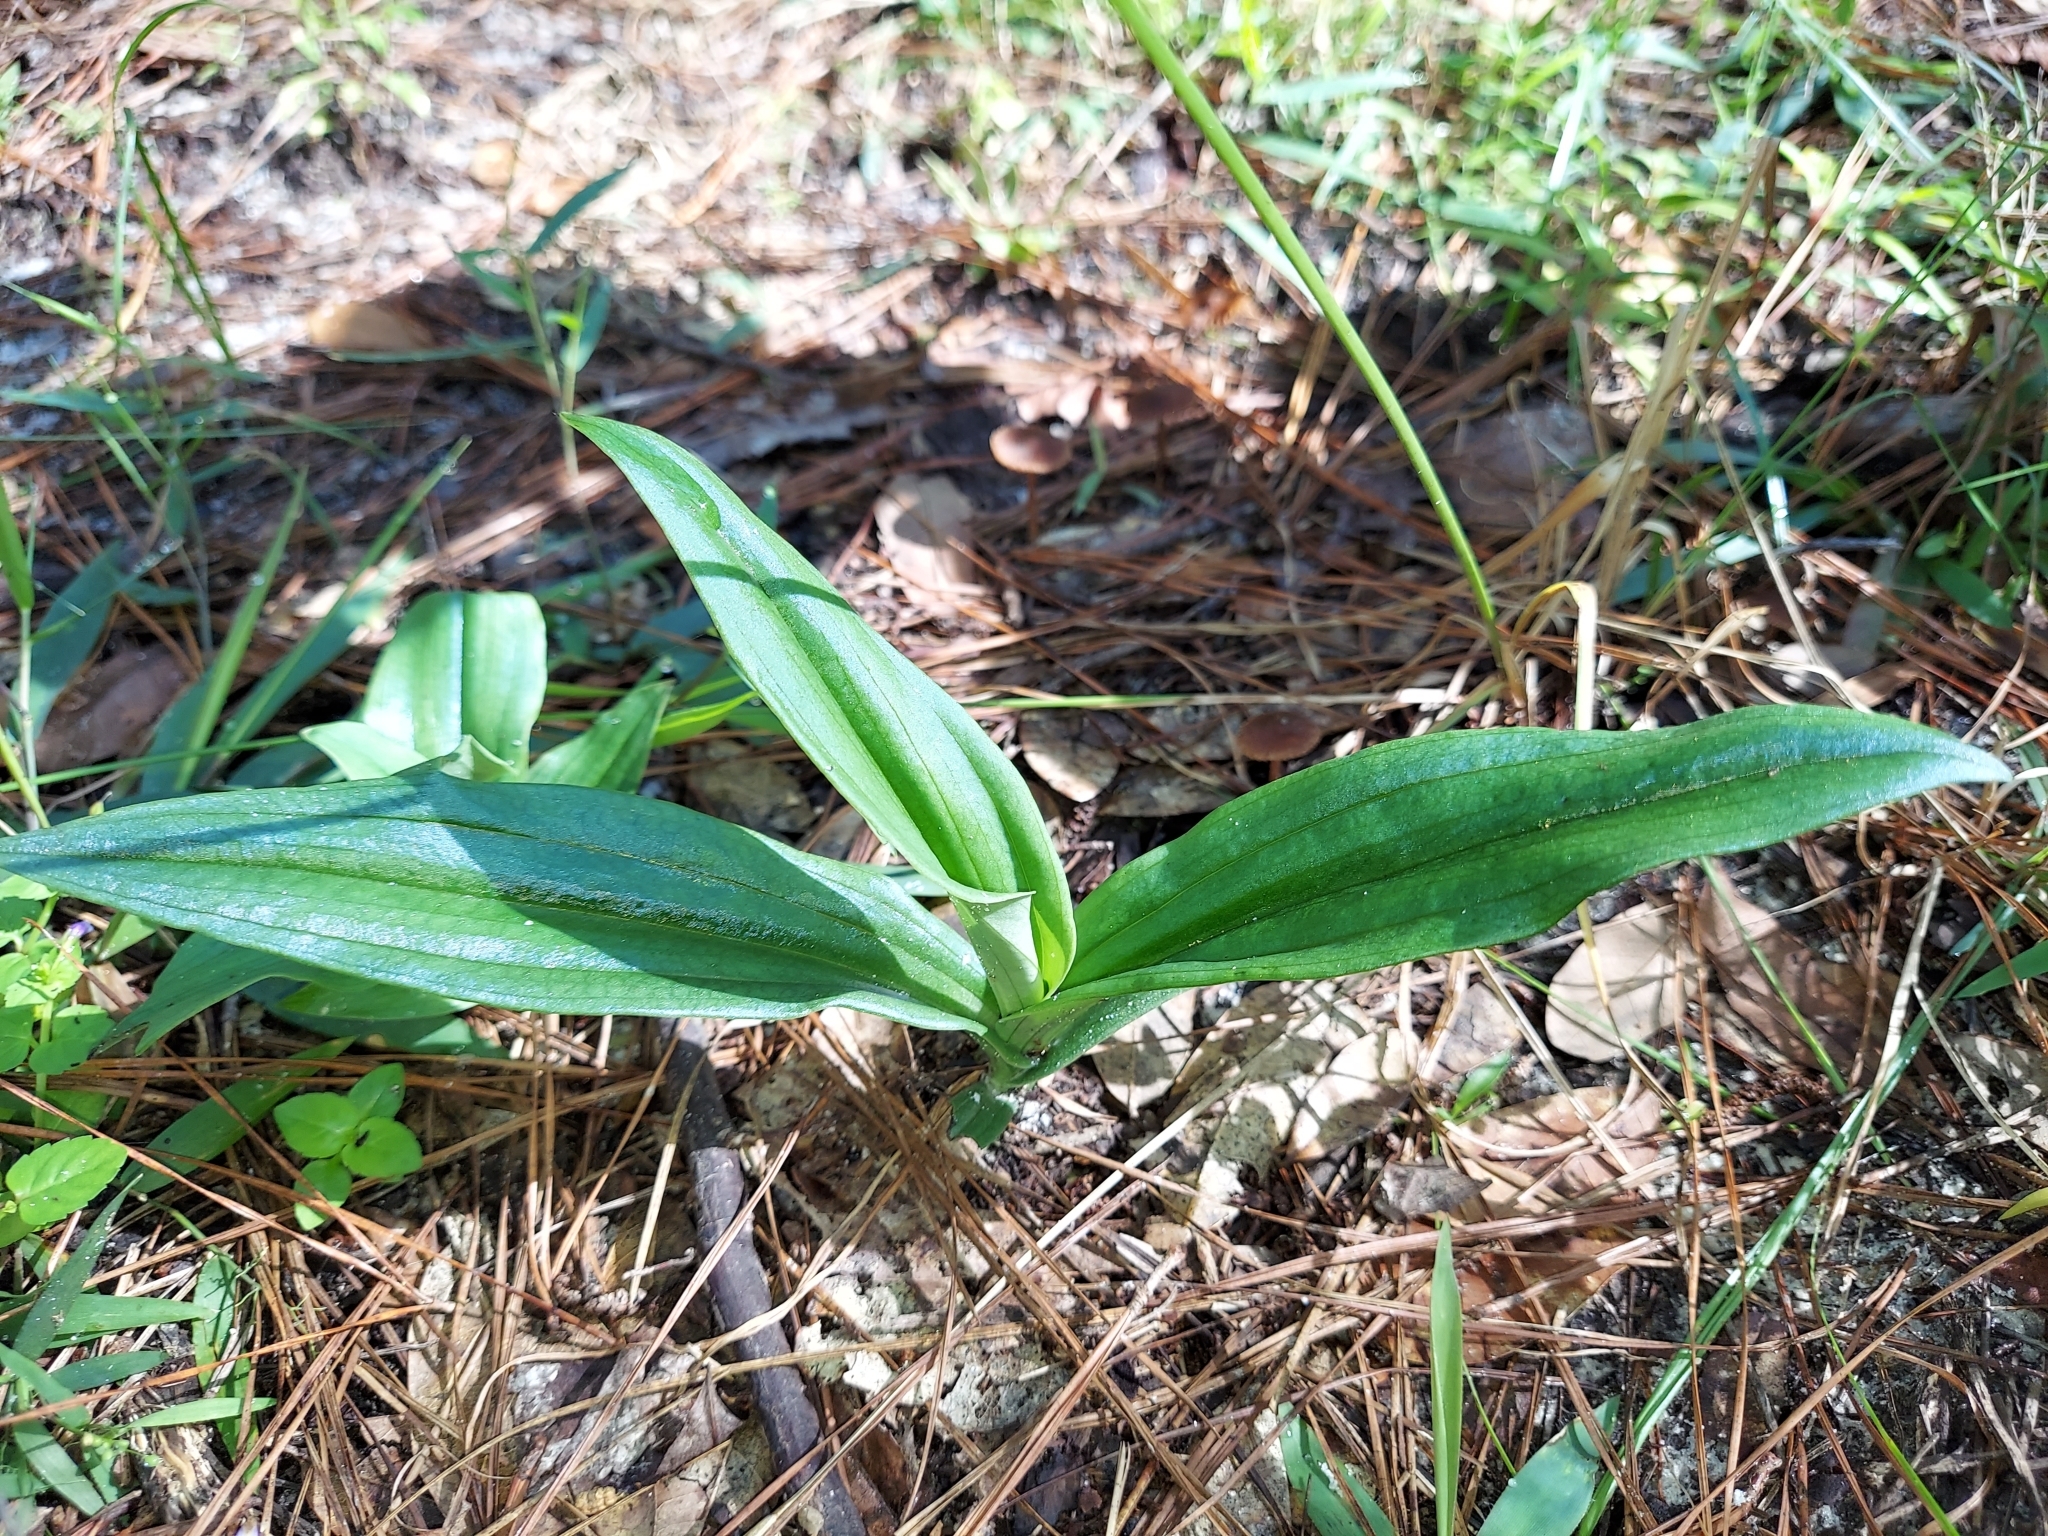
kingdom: Plantae
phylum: Tracheophyta
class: Liliopsida
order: Asparagales
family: Orchidaceae
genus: Habenaria
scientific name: Habenaria floribunda
